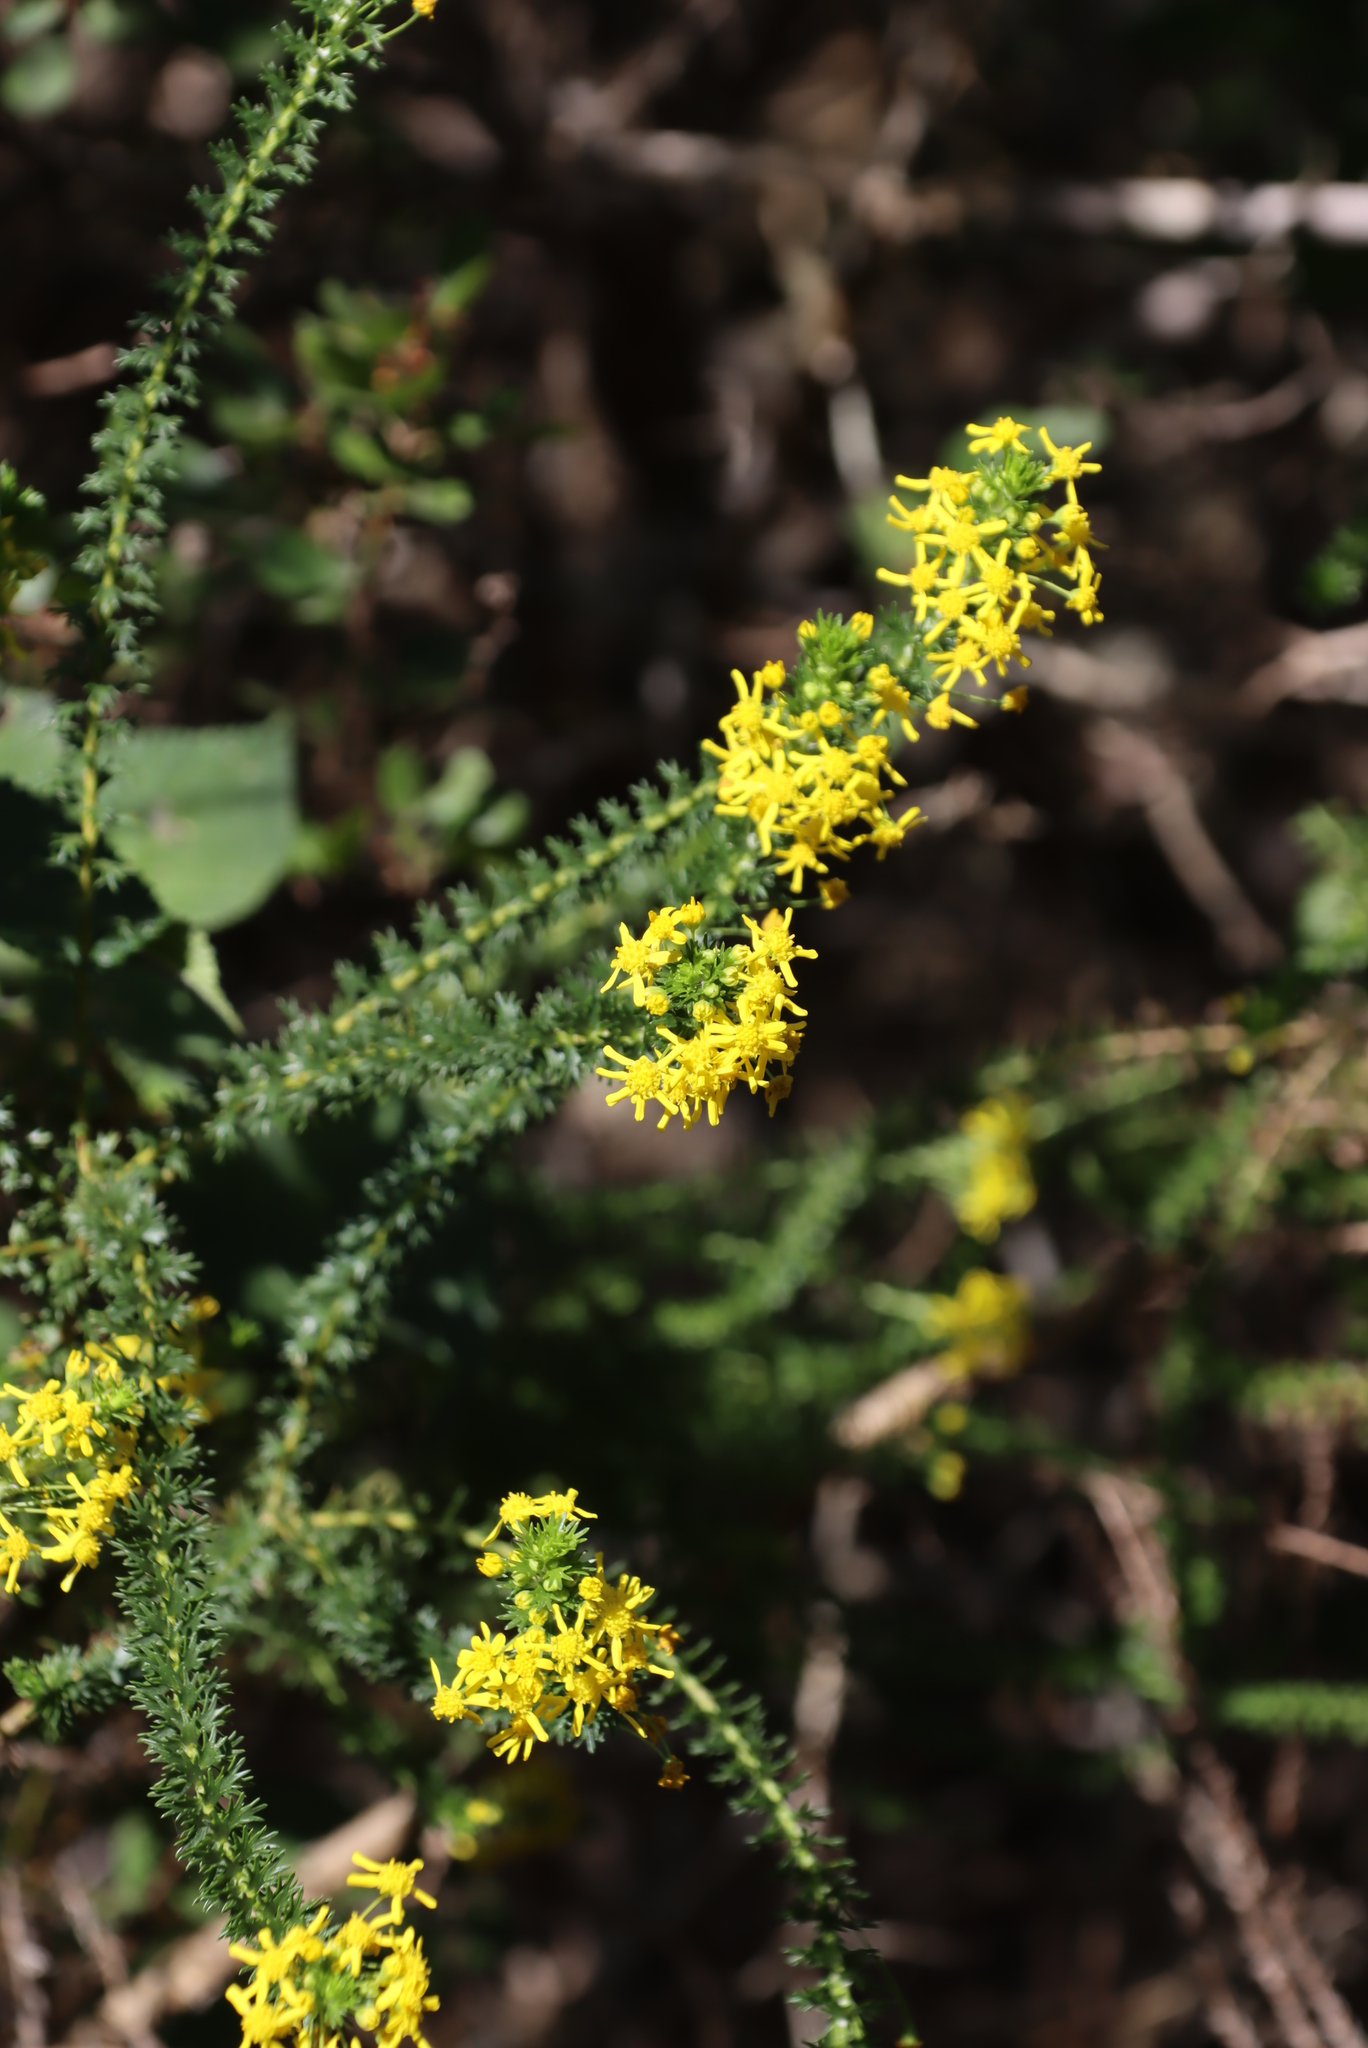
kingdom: Plantae
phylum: Tracheophyta
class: Magnoliopsida
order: Asterales
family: Asteraceae
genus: Euryops
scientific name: Euryops virgineus
